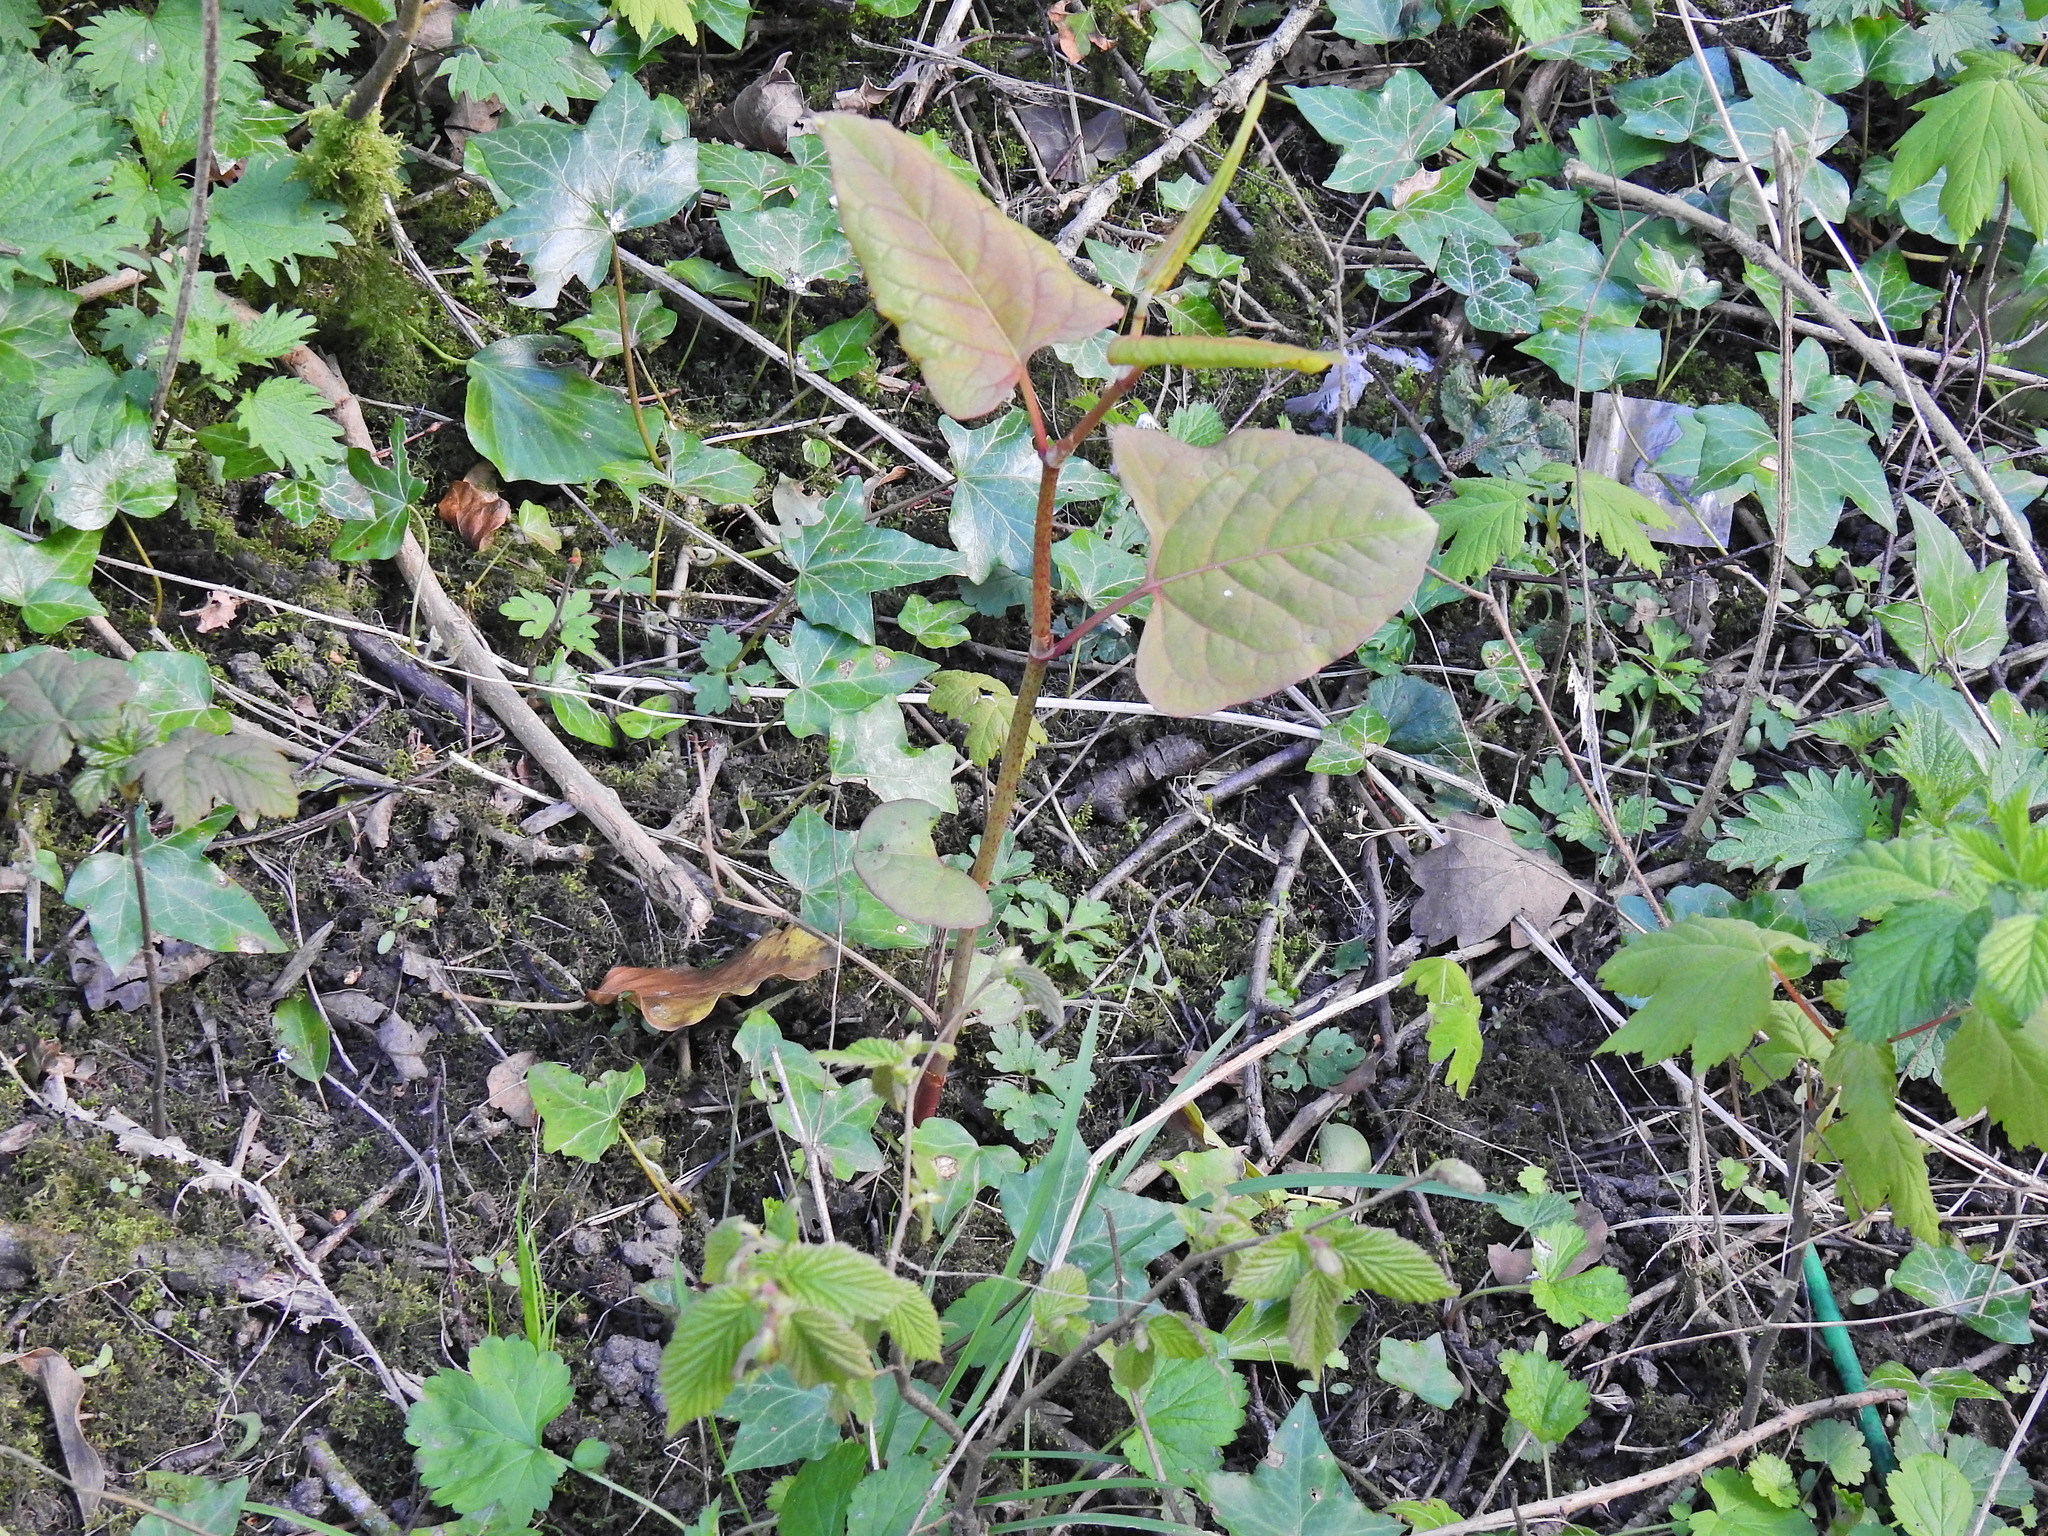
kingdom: Plantae
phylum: Tracheophyta
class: Magnoliopsida
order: Caryophyllales
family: Polygonaceae
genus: Reynoutria
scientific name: Reynoutria japonica
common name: Japanese knotweed
